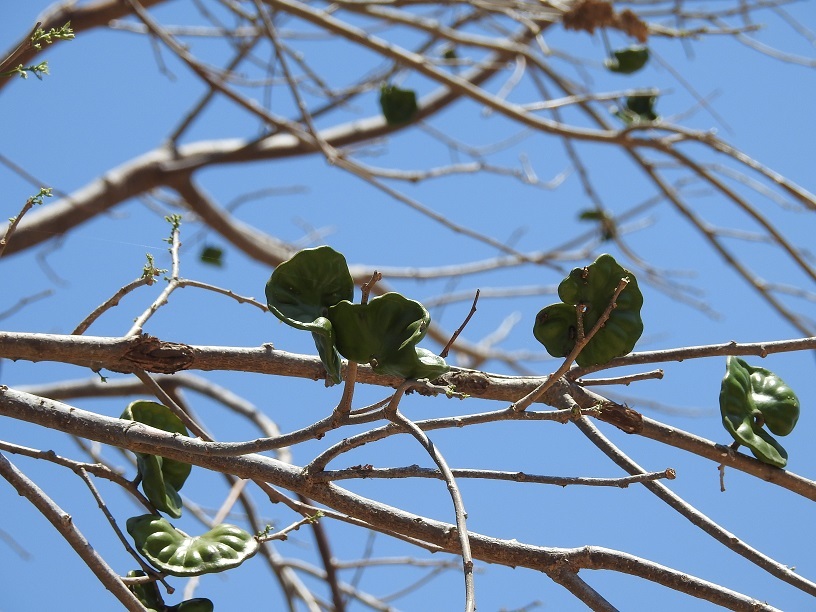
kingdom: Plantae
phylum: Tracheophyta
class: Magnoliopsida
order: Fabales
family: Fabaceae
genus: Enterolobium
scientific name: Enterolobium cyclocarpum
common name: Ear tree
